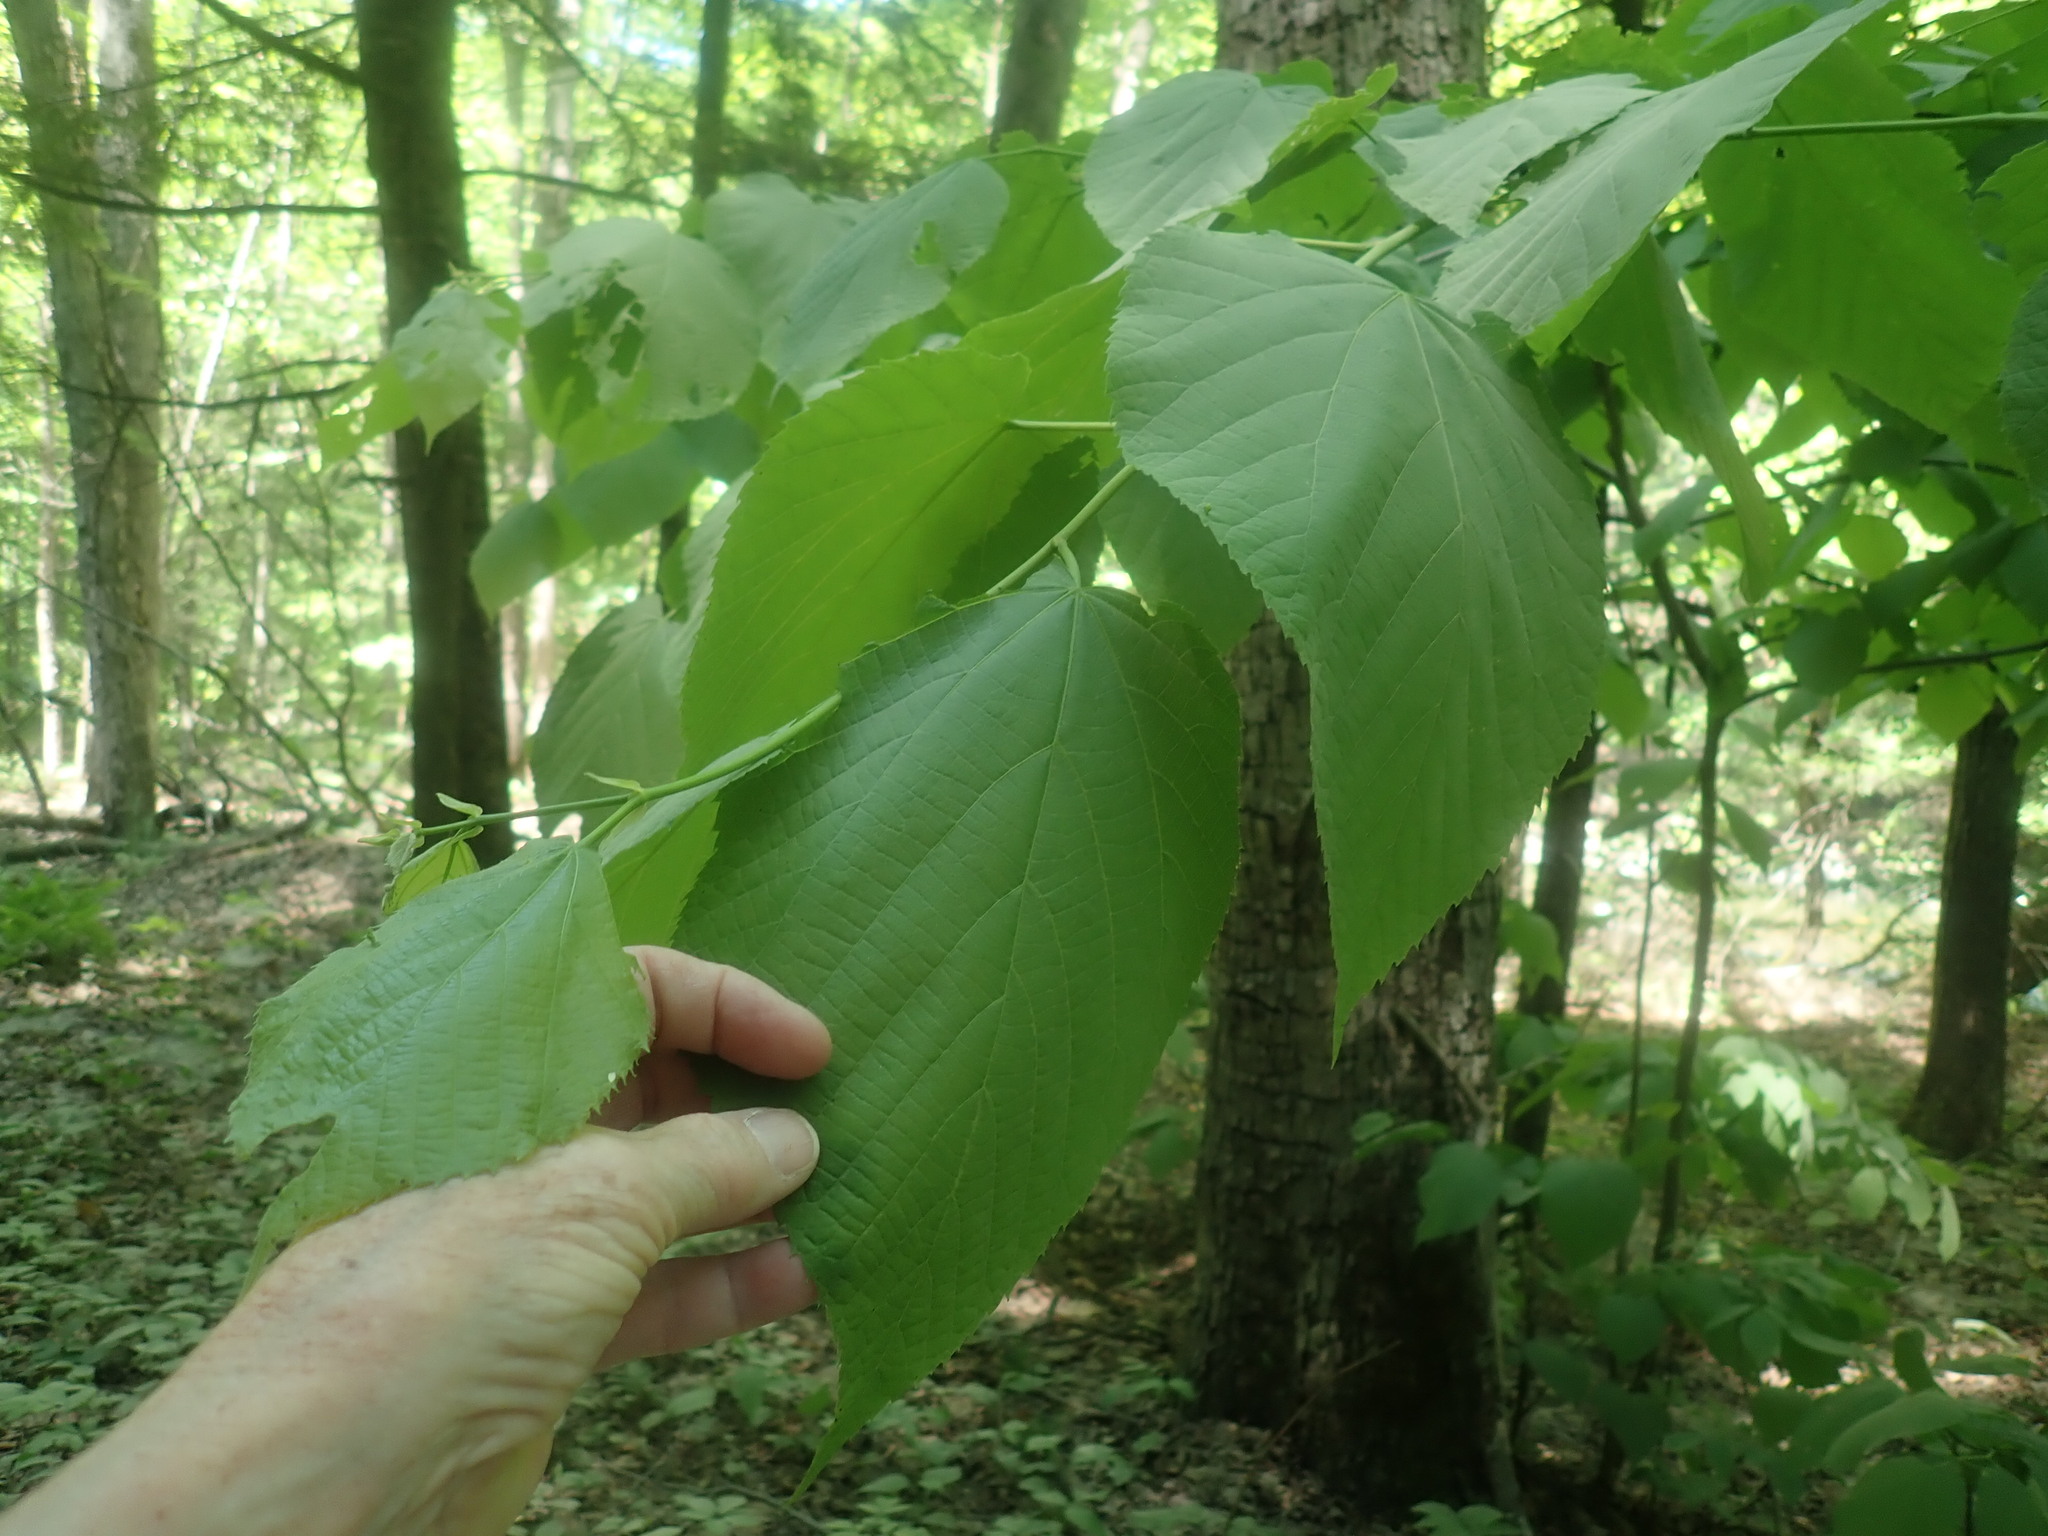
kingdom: Plantae
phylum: Tracheophyta
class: Magnoliopsida
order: Malvales
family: Malvaceae
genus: Tilia
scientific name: Tilia americana
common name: Basswood
